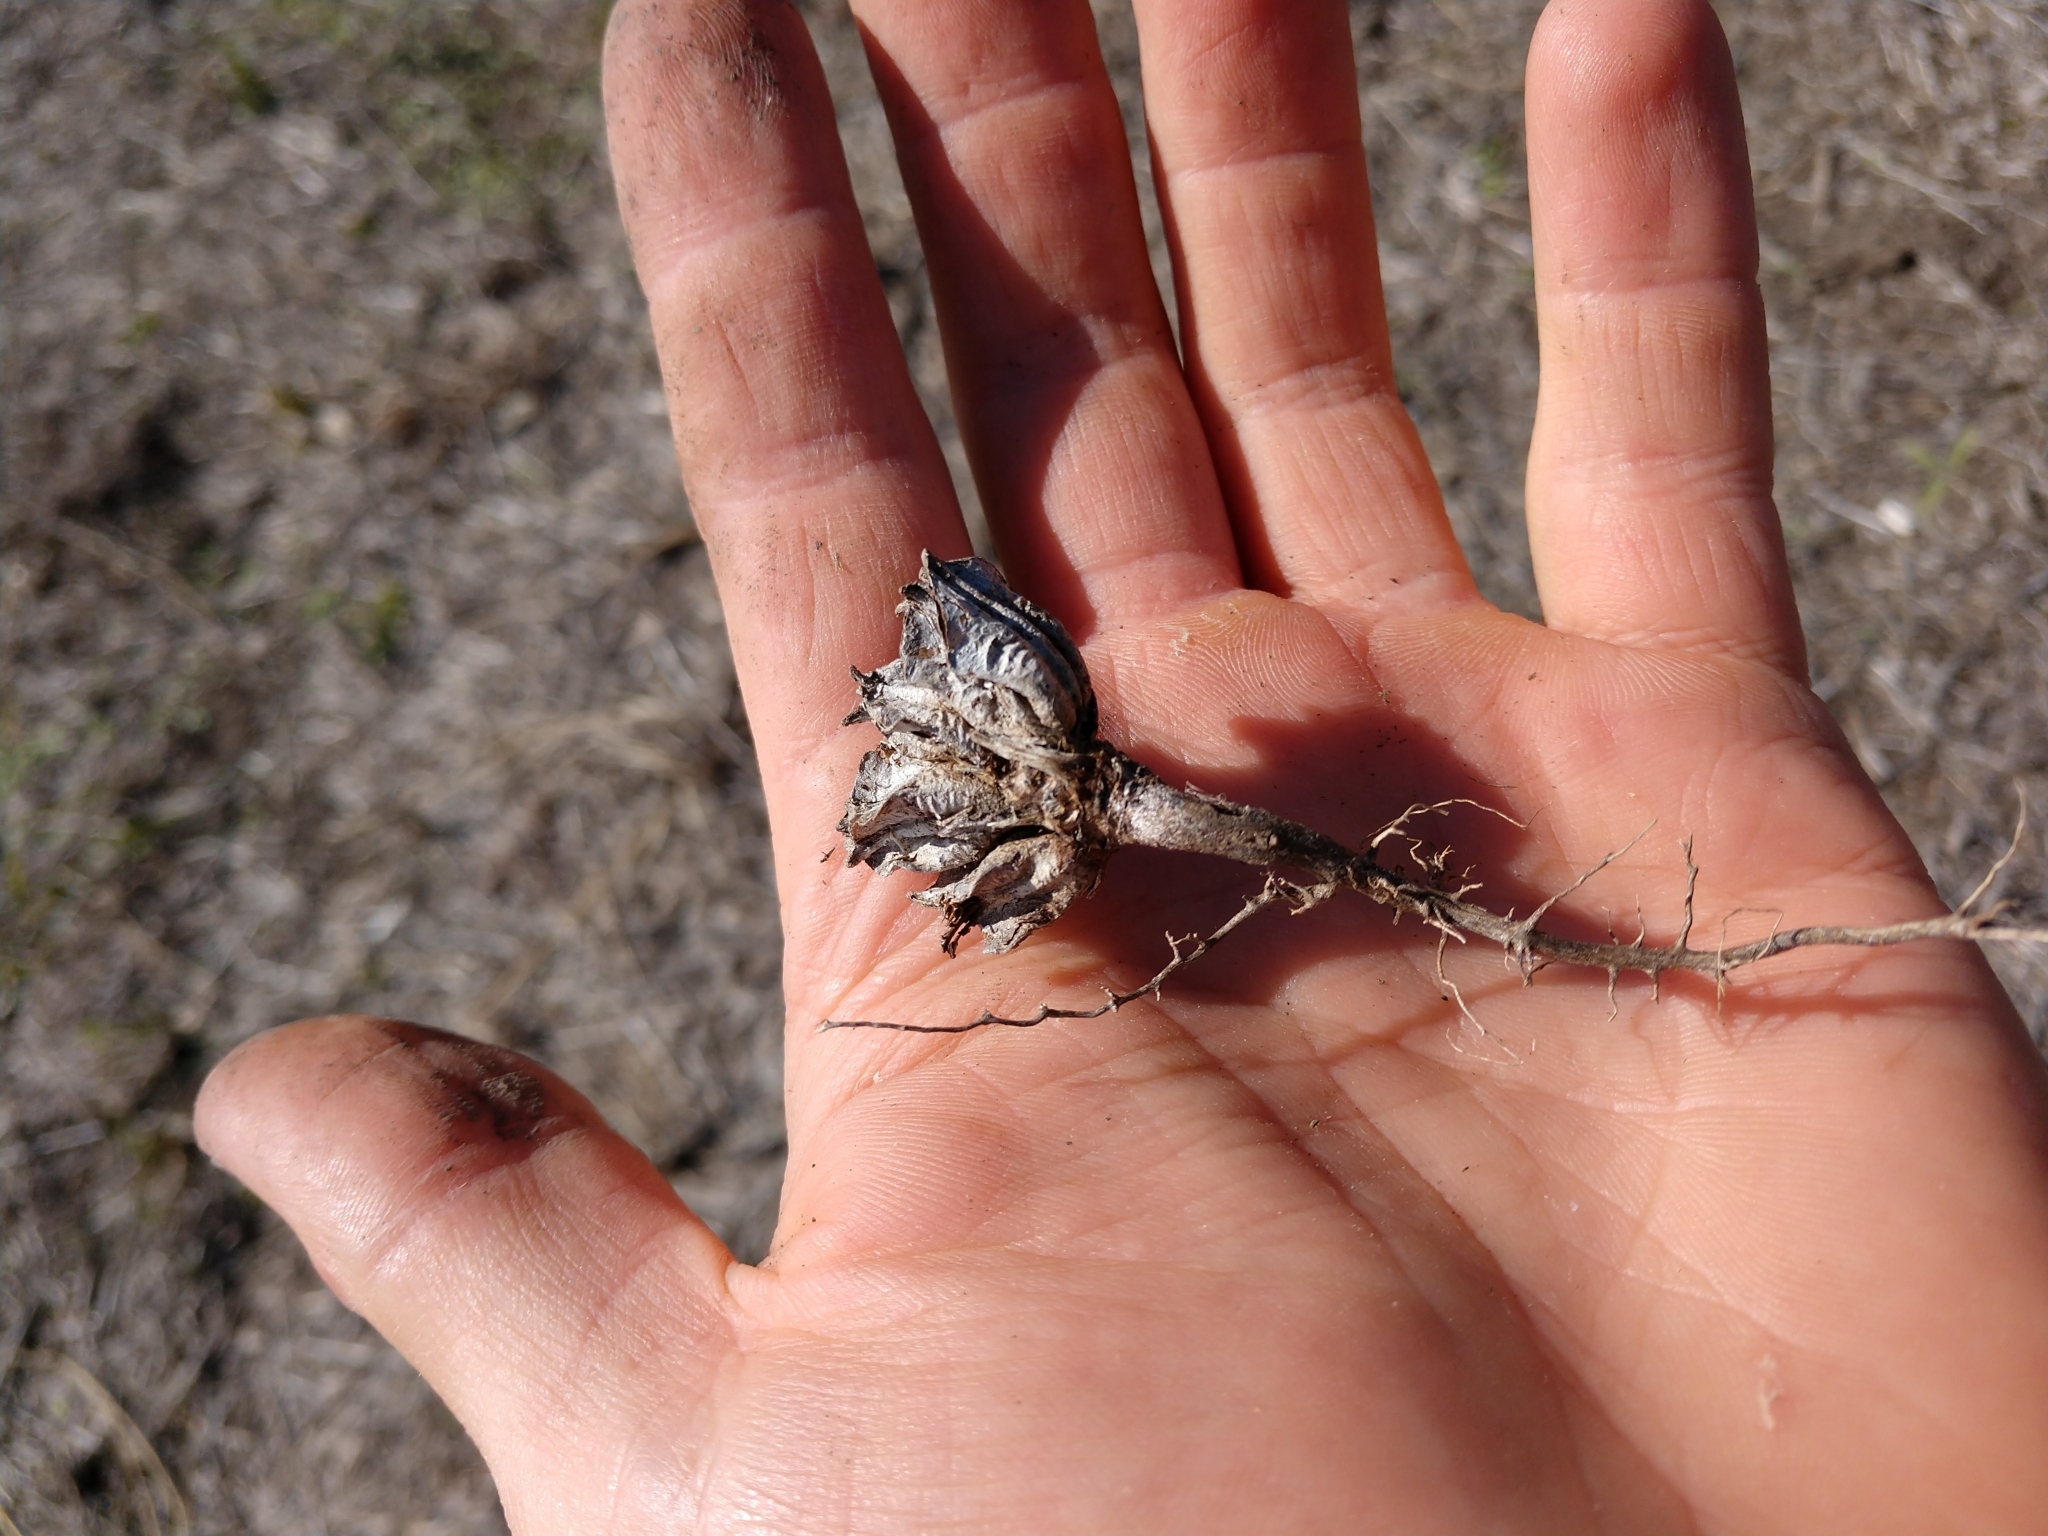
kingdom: Plantae
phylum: Tracheophyta
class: Magnoliopsida
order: Myrtales
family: Onagraceae
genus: Oenothera
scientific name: Oenothera triloba
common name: Sessile evening-primrose
